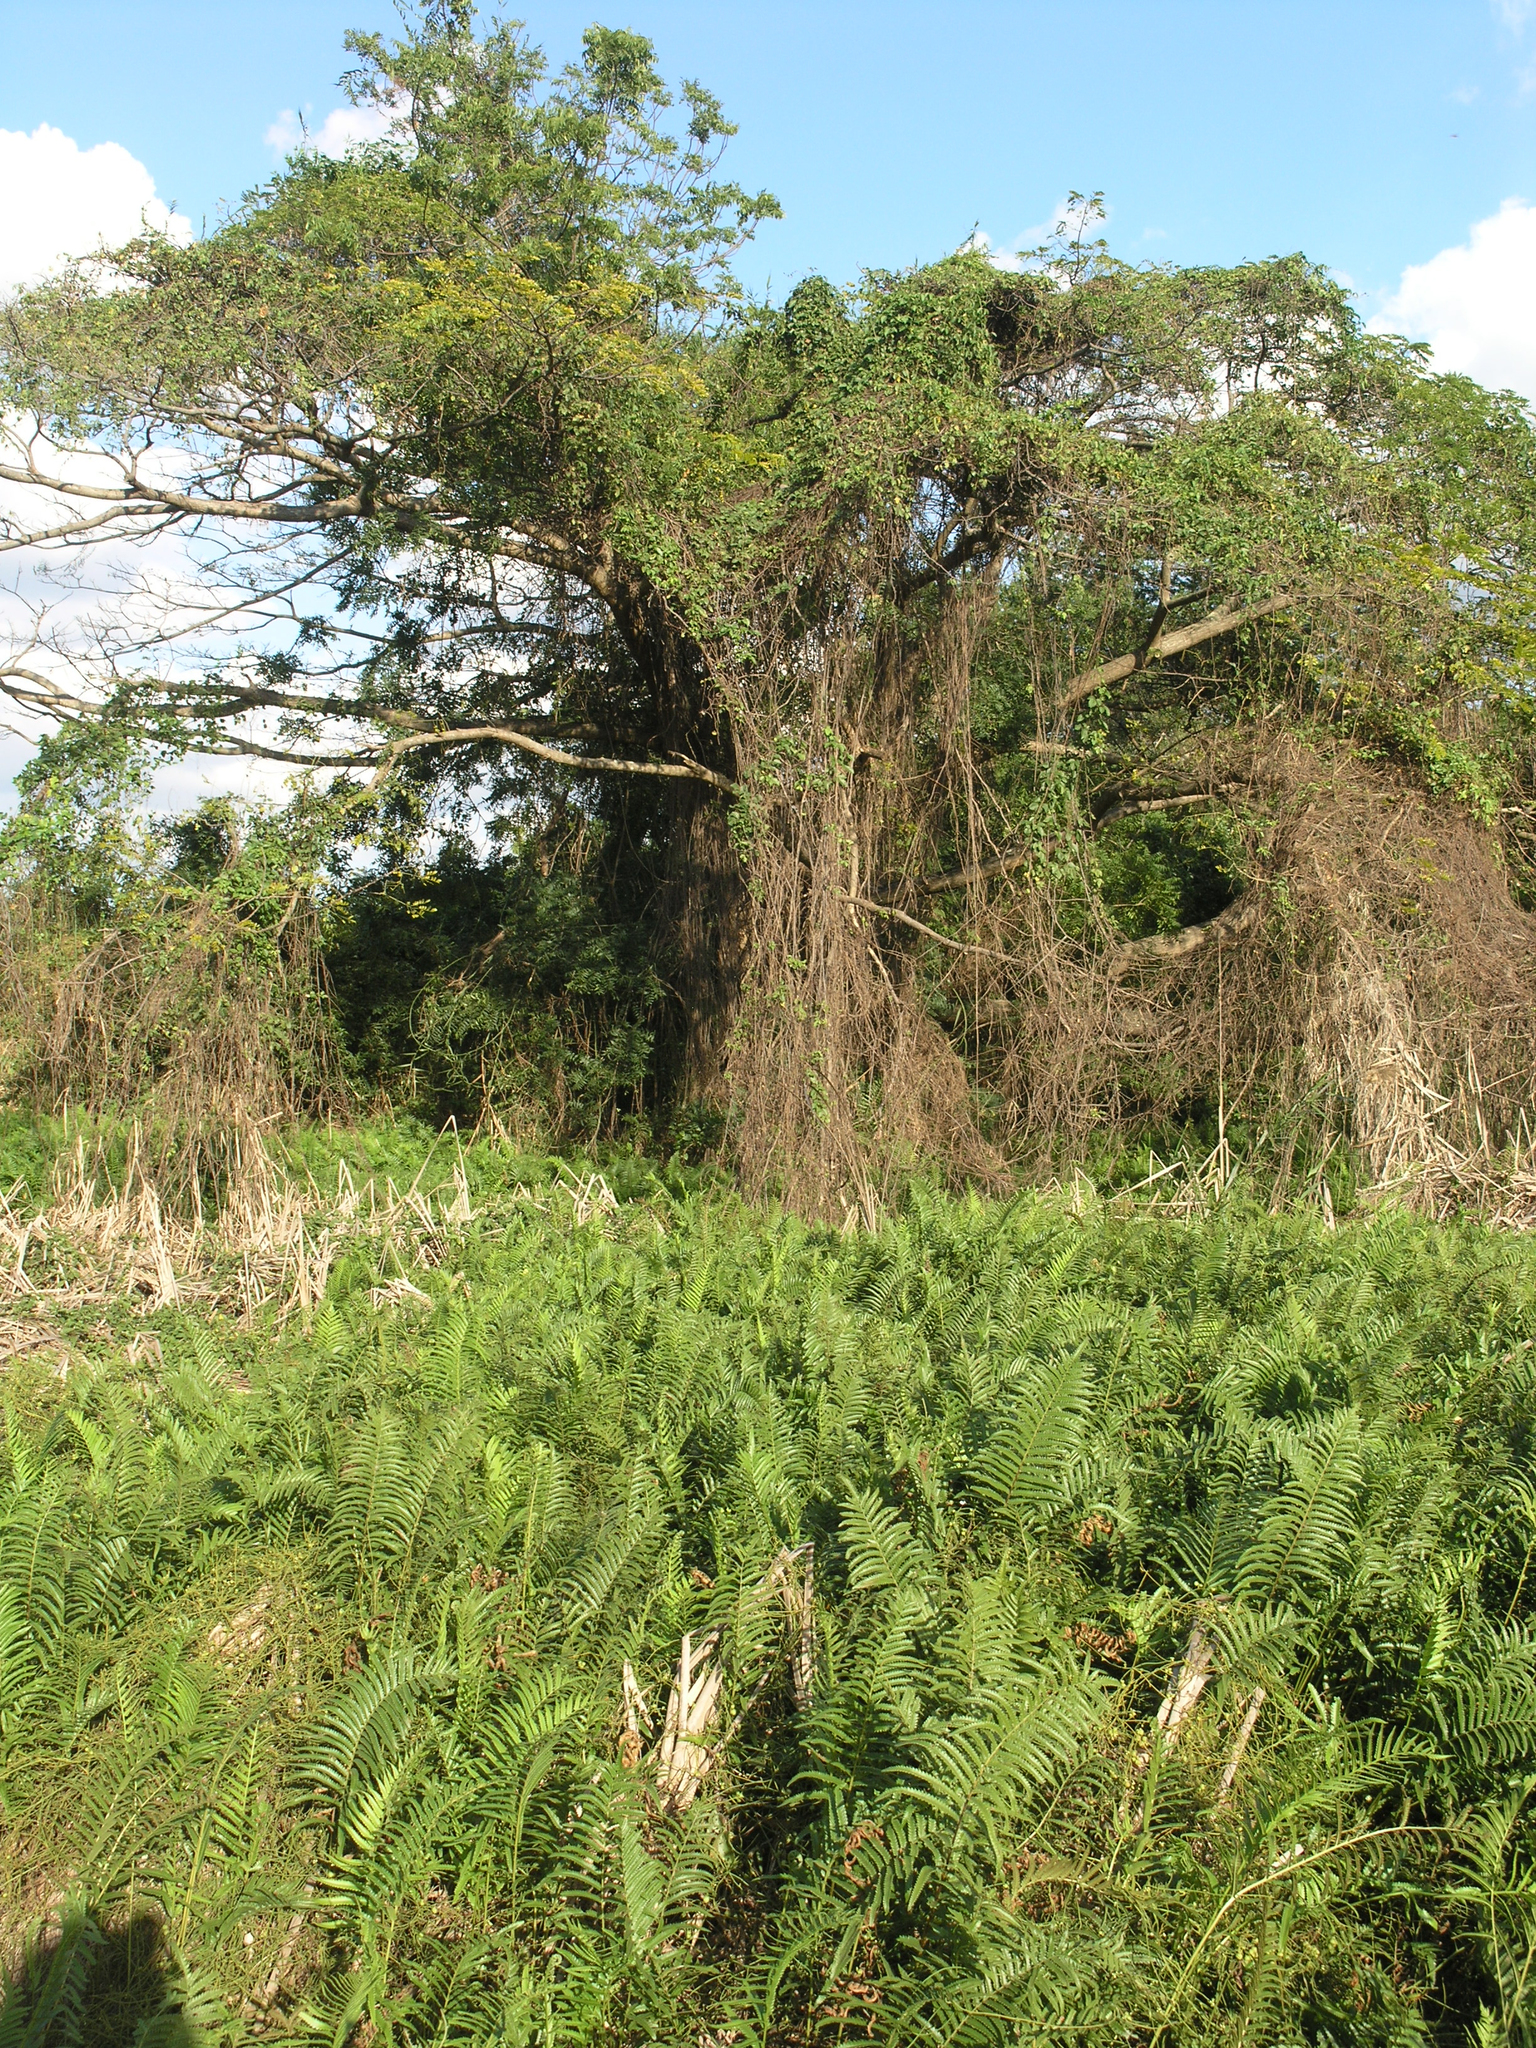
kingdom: Animalia
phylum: Arthropoda
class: Insecta
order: Odonata
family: Coenagrionidae
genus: Ceriagrion
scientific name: Ceriagrion olivaceum
